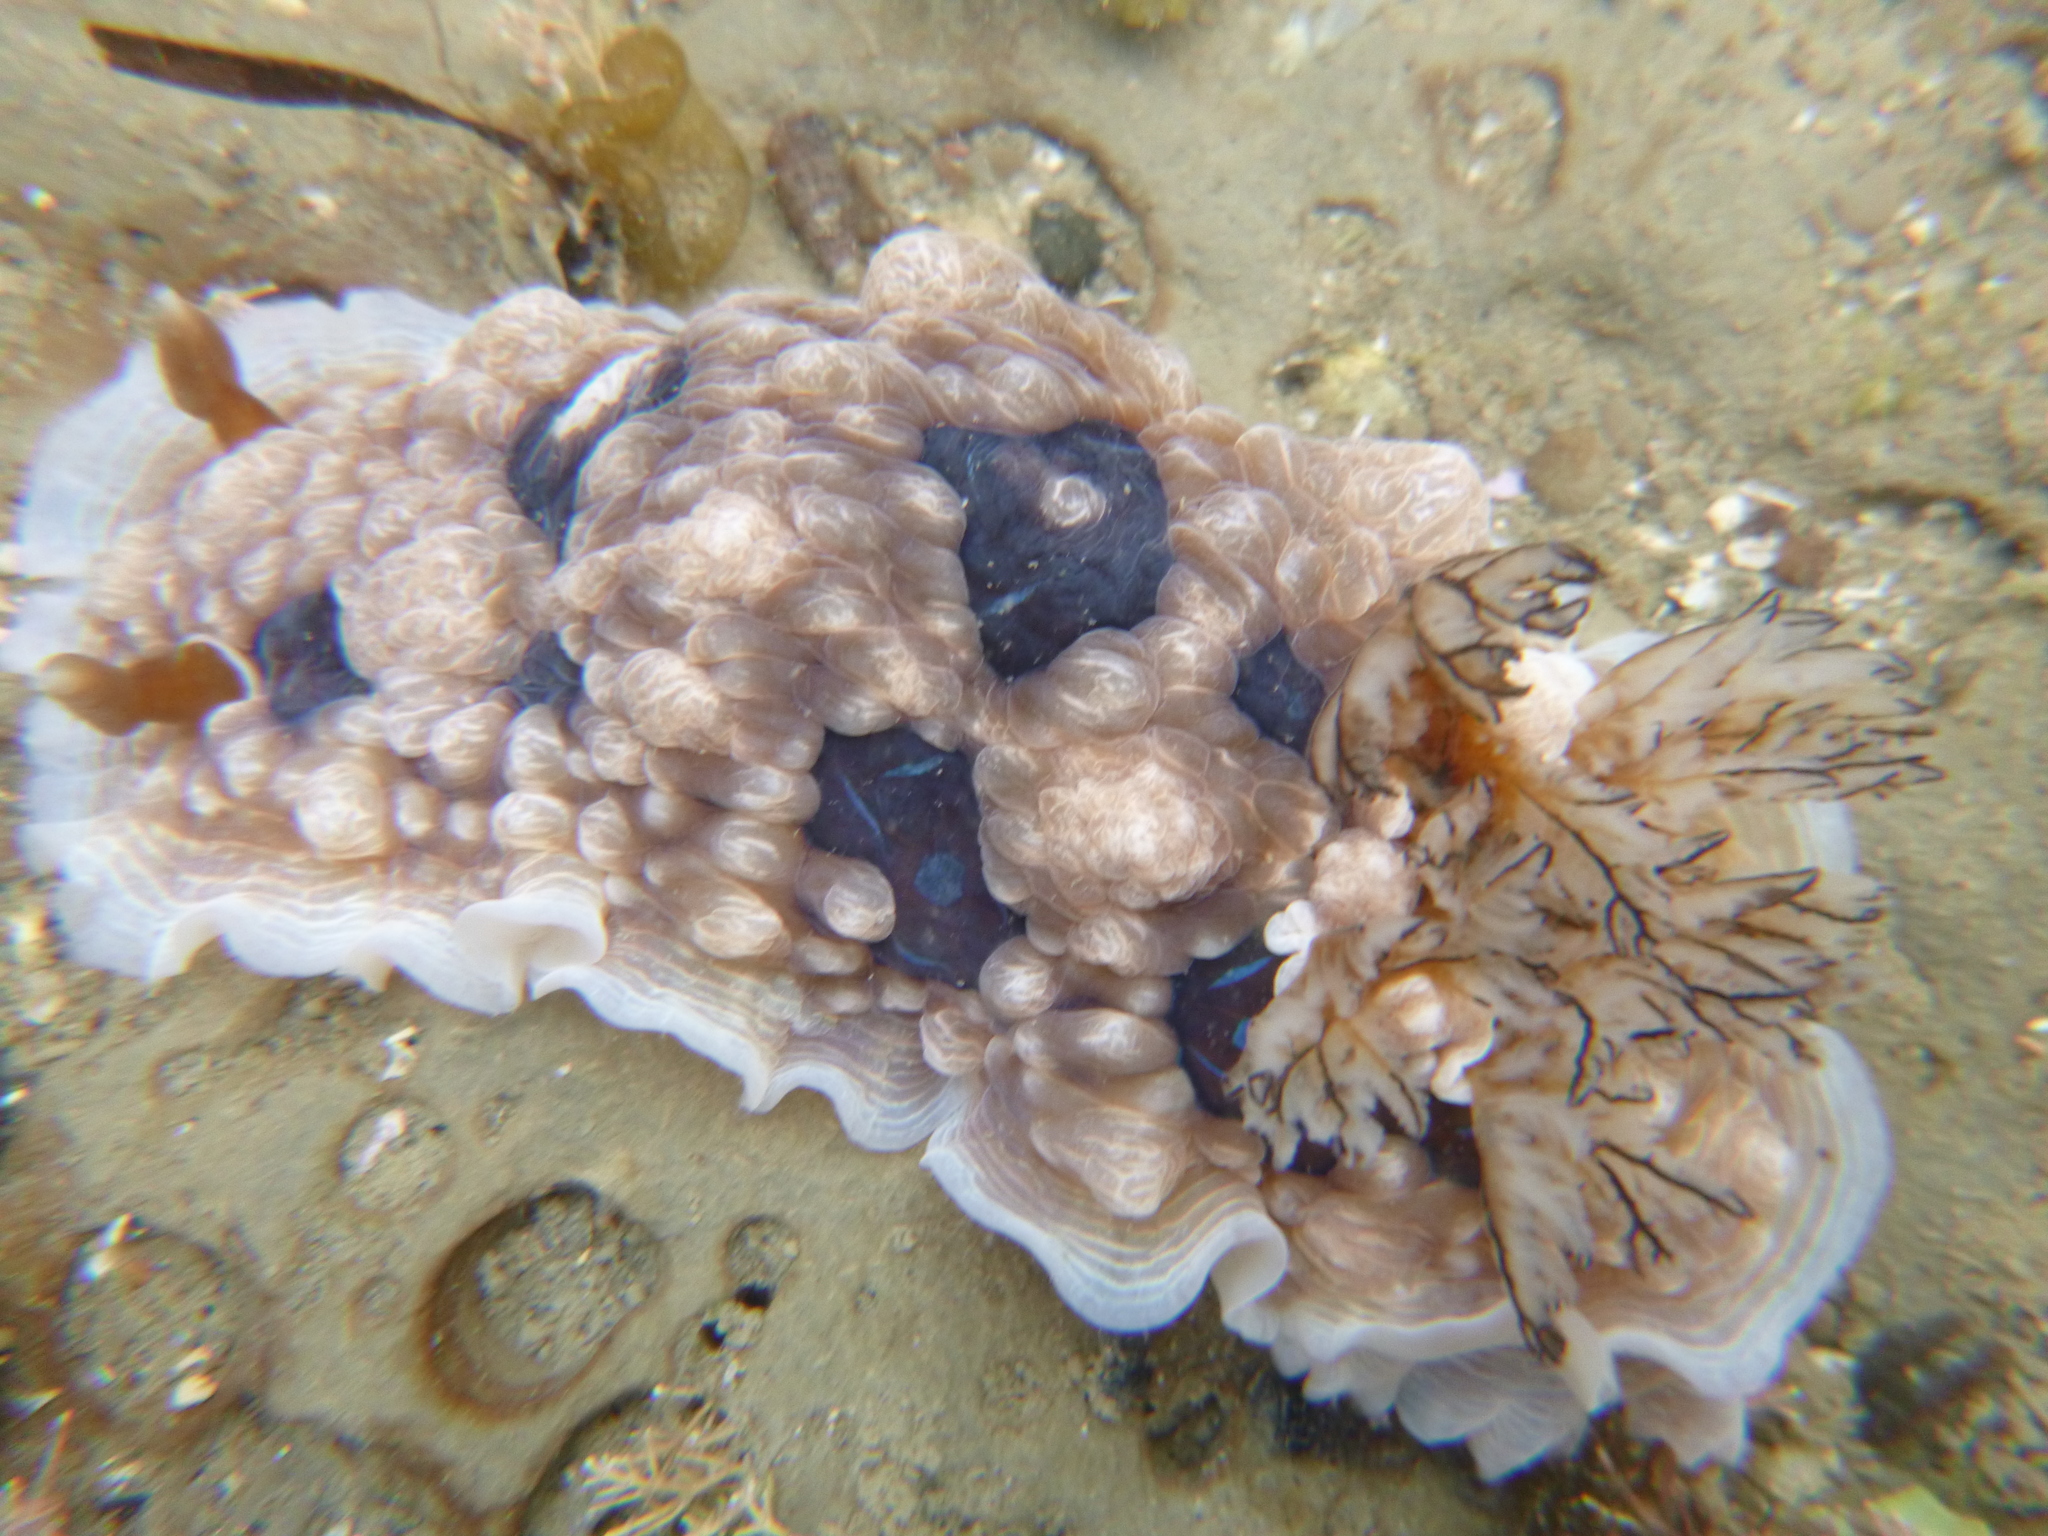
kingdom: Animalia
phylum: Mollusca
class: Gastropoda
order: Nudibranchia
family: Dendrodorididae
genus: Dendrodoris
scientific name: Dendrodoris krusensternii
